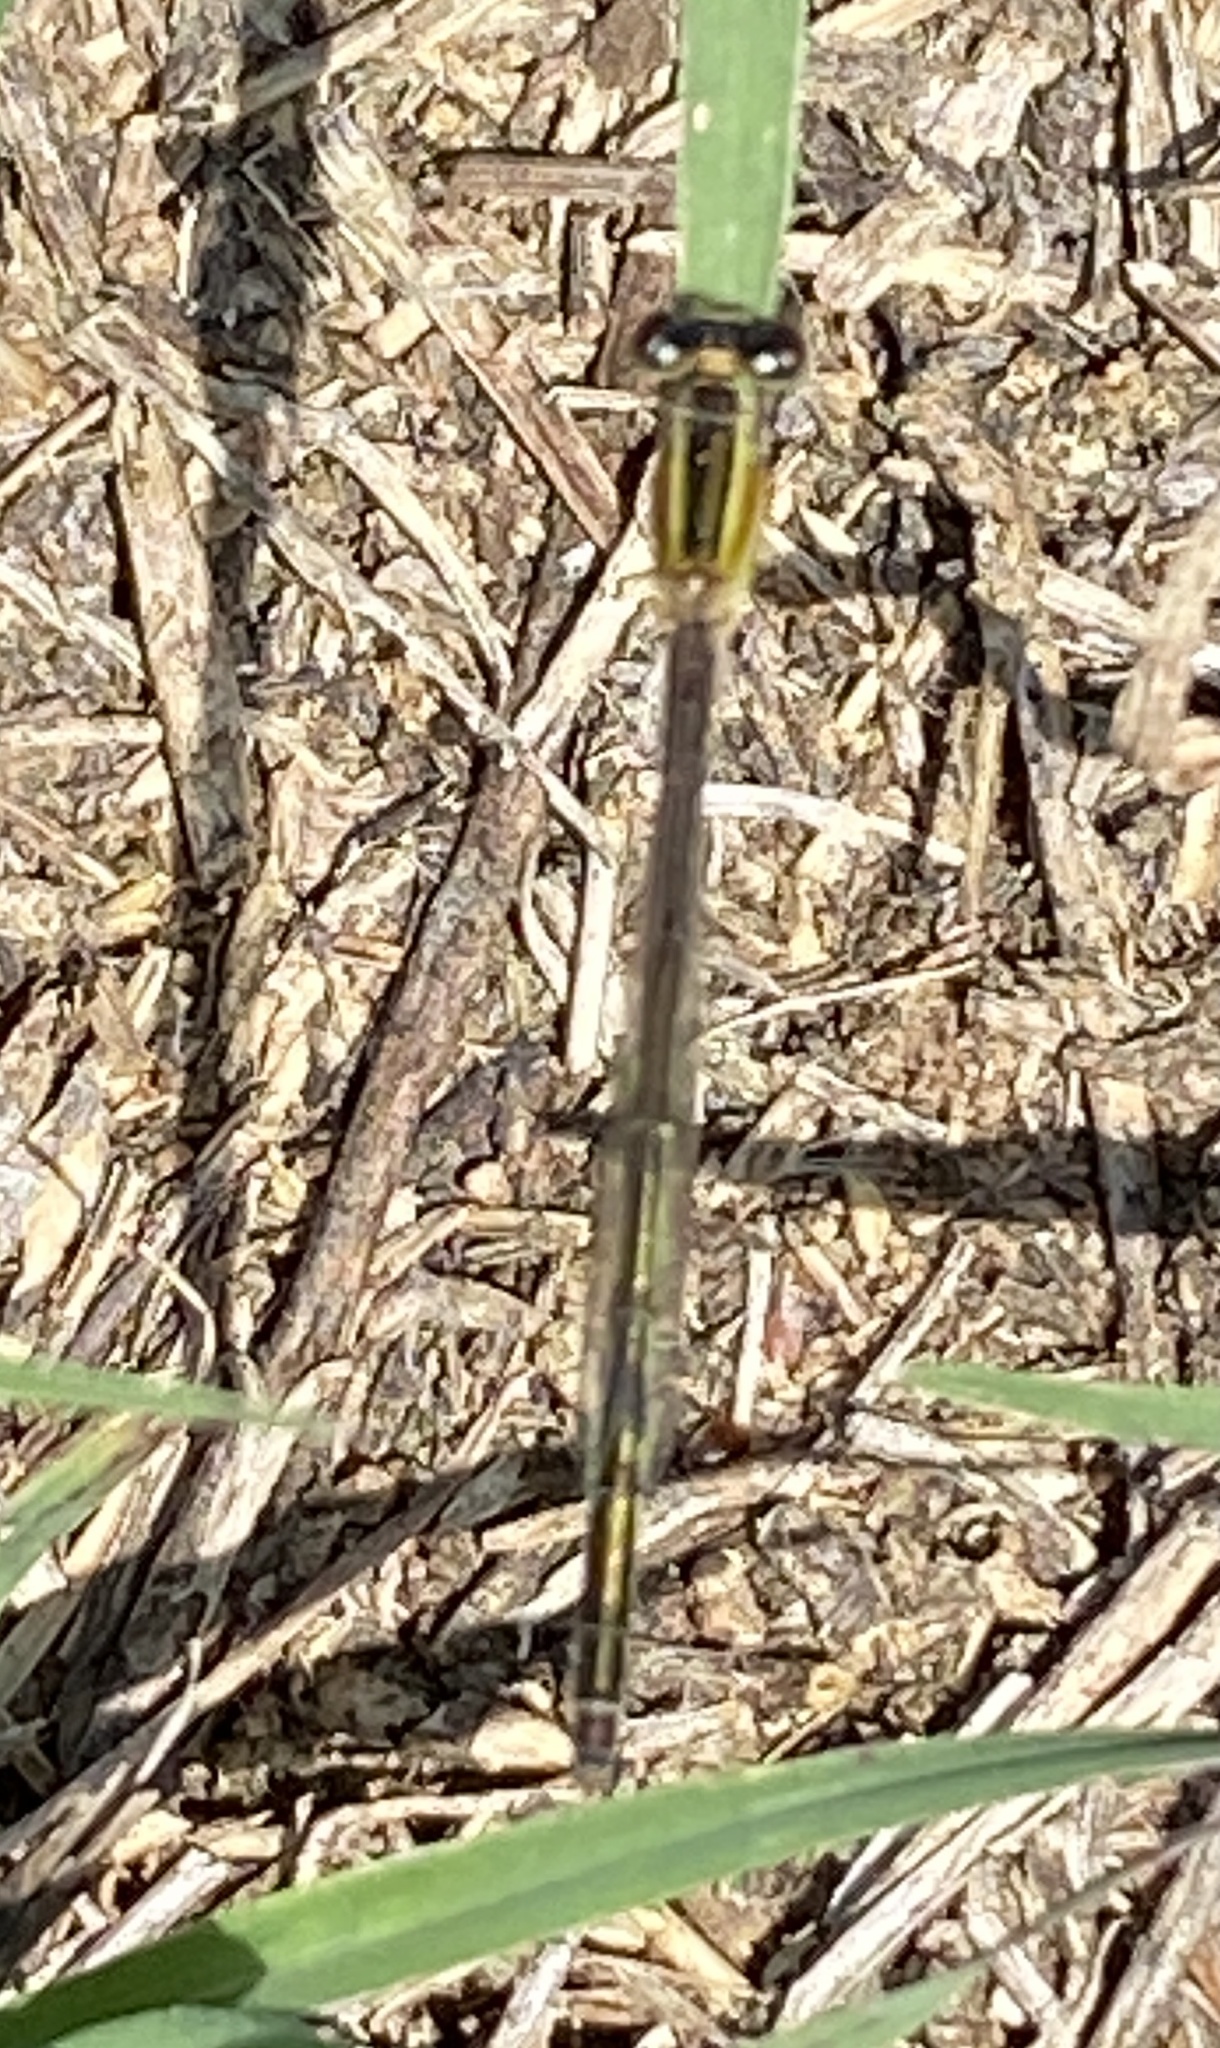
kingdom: Animalia
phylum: Arthropoda
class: Insecta
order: Odonata
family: Coenagrionidae
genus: Ischnura
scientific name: Ischnura senegalensis
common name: Tropical bluetail
